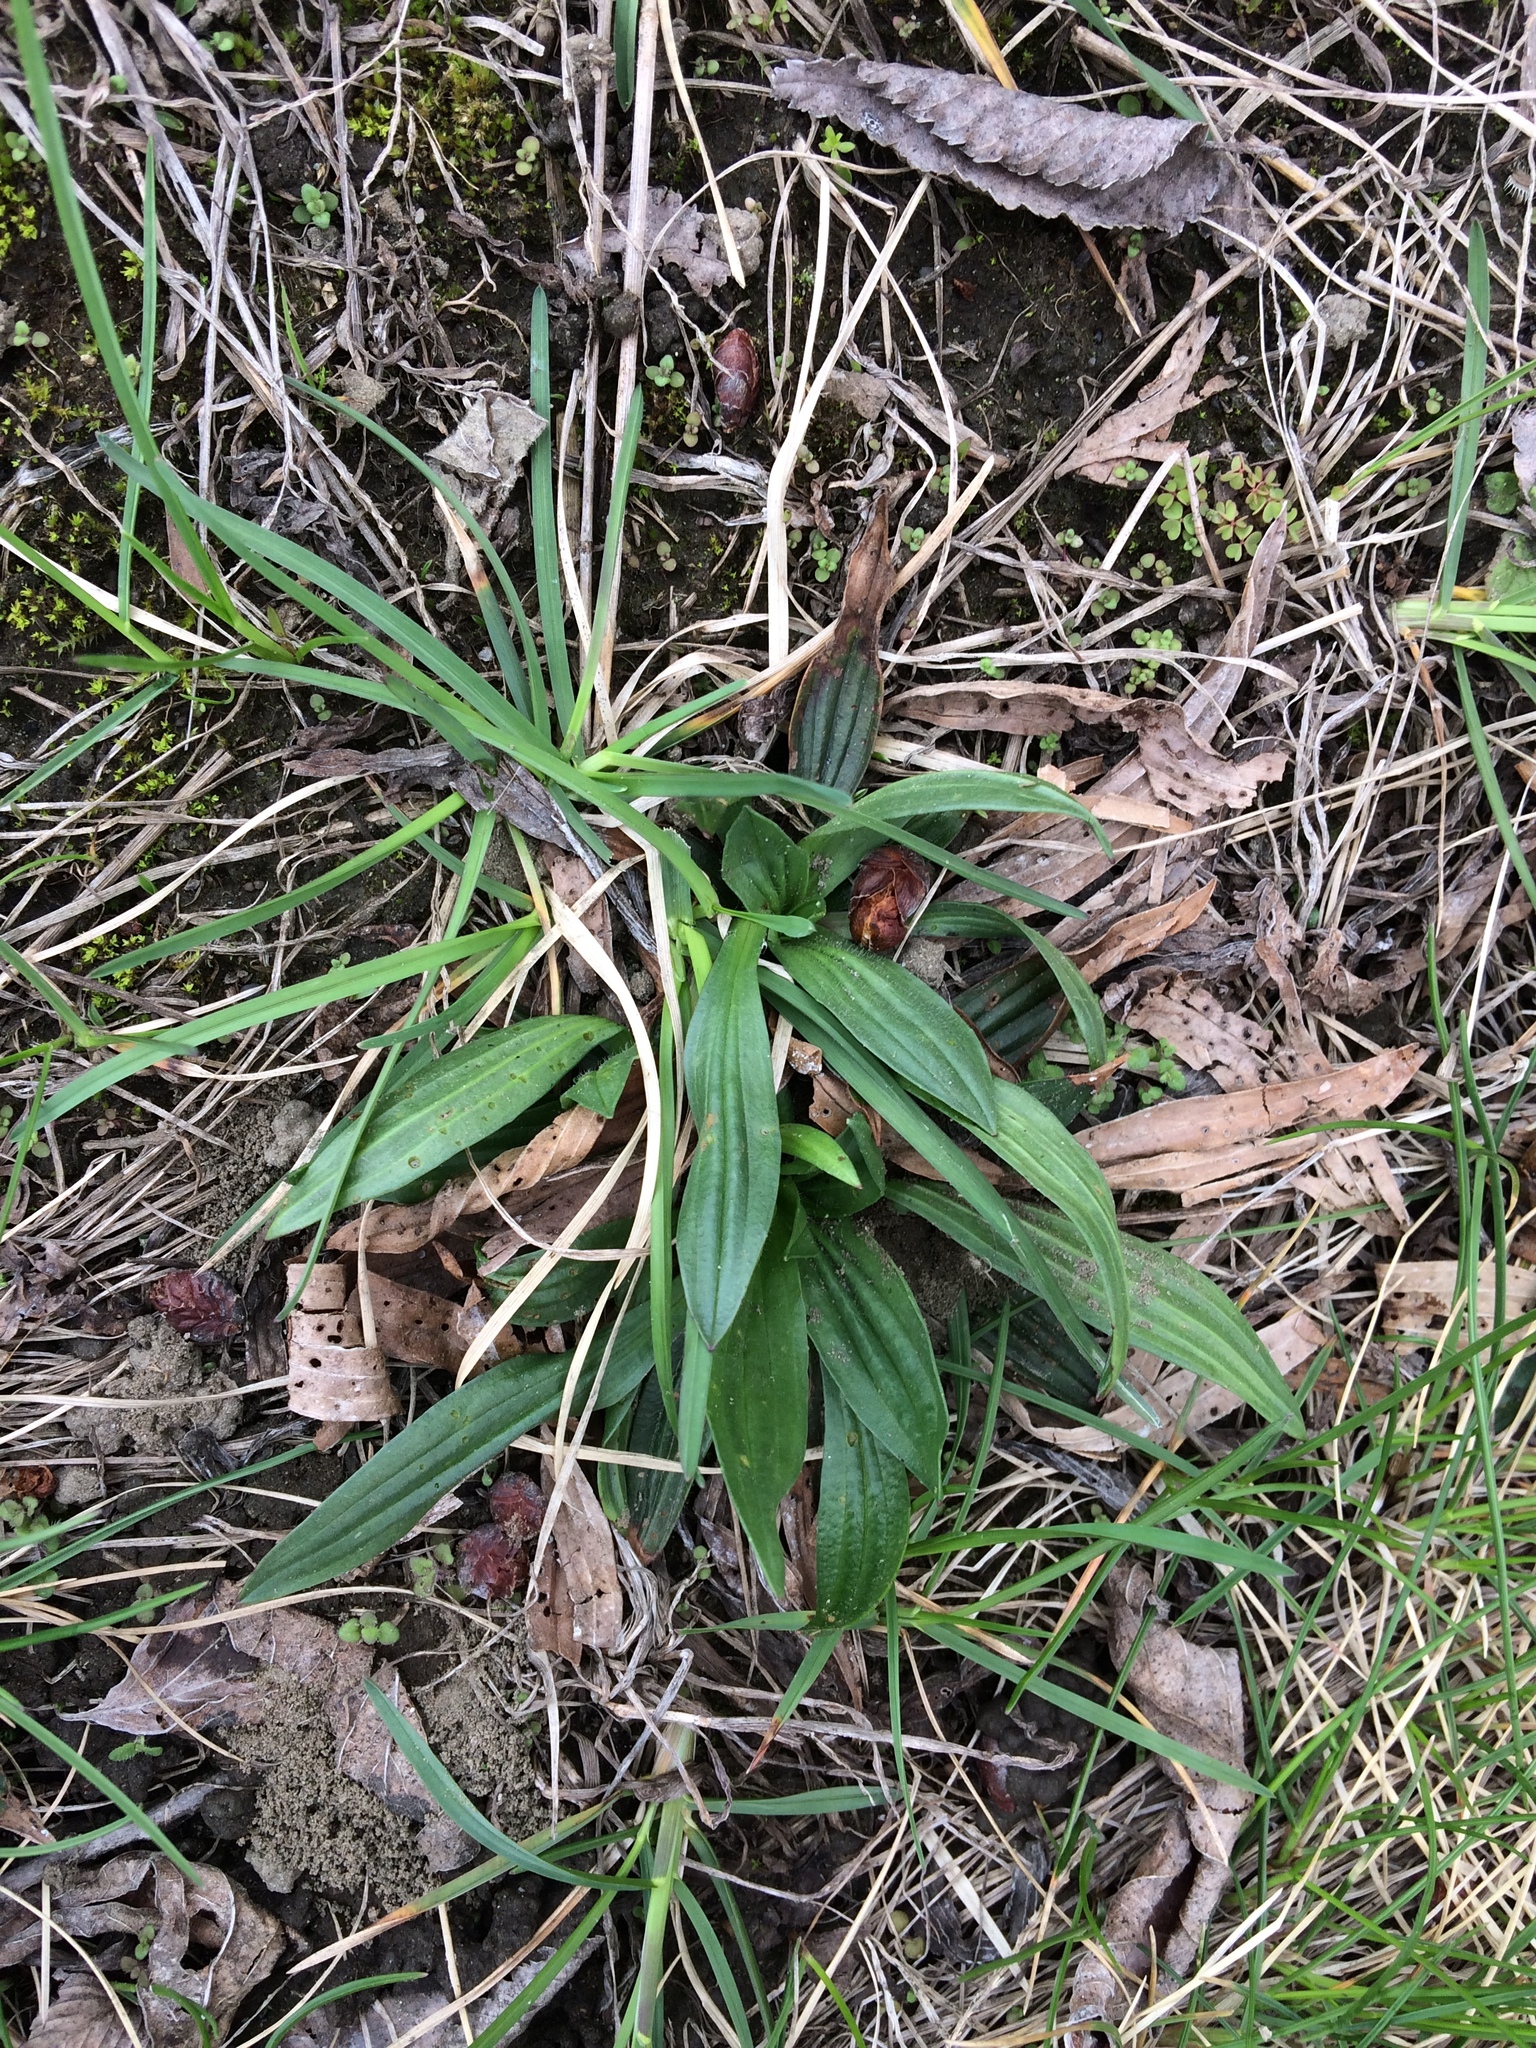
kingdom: Plantae
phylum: Tracheophyta
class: Magnoliopsida
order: Lamiales
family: Plantaginaceae
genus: Plantago
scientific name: Plantago lanceolata
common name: Ribwort plantain
